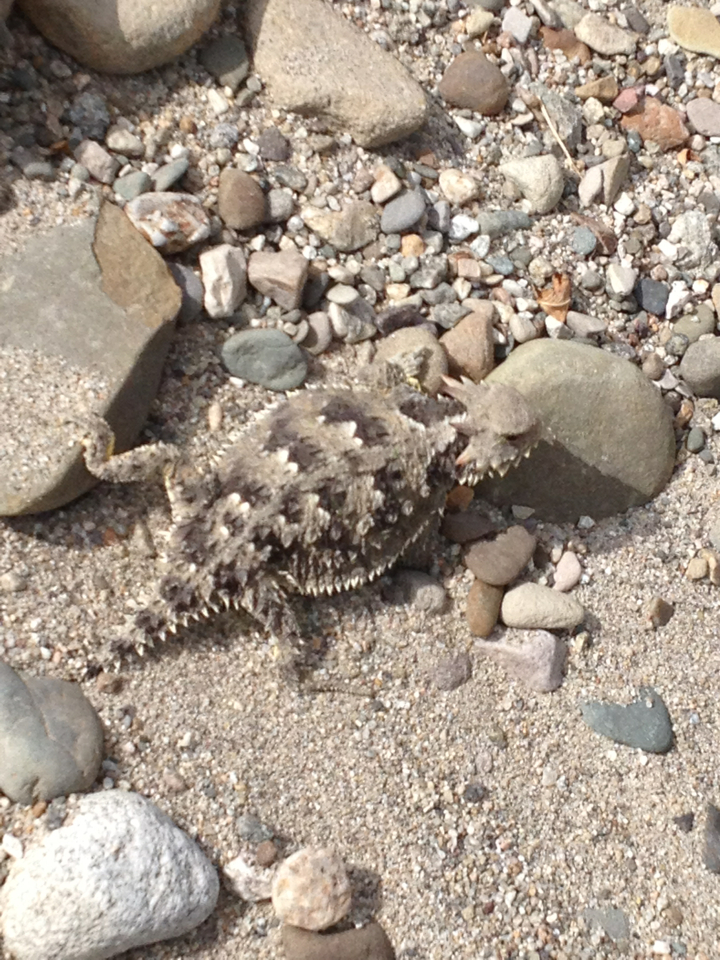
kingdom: Animalia
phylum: Chordata
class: Squamata
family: Phrynosomatidae
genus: Phrynosoma
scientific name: Phrynosoma blainvillii
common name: San diego horned lizard
